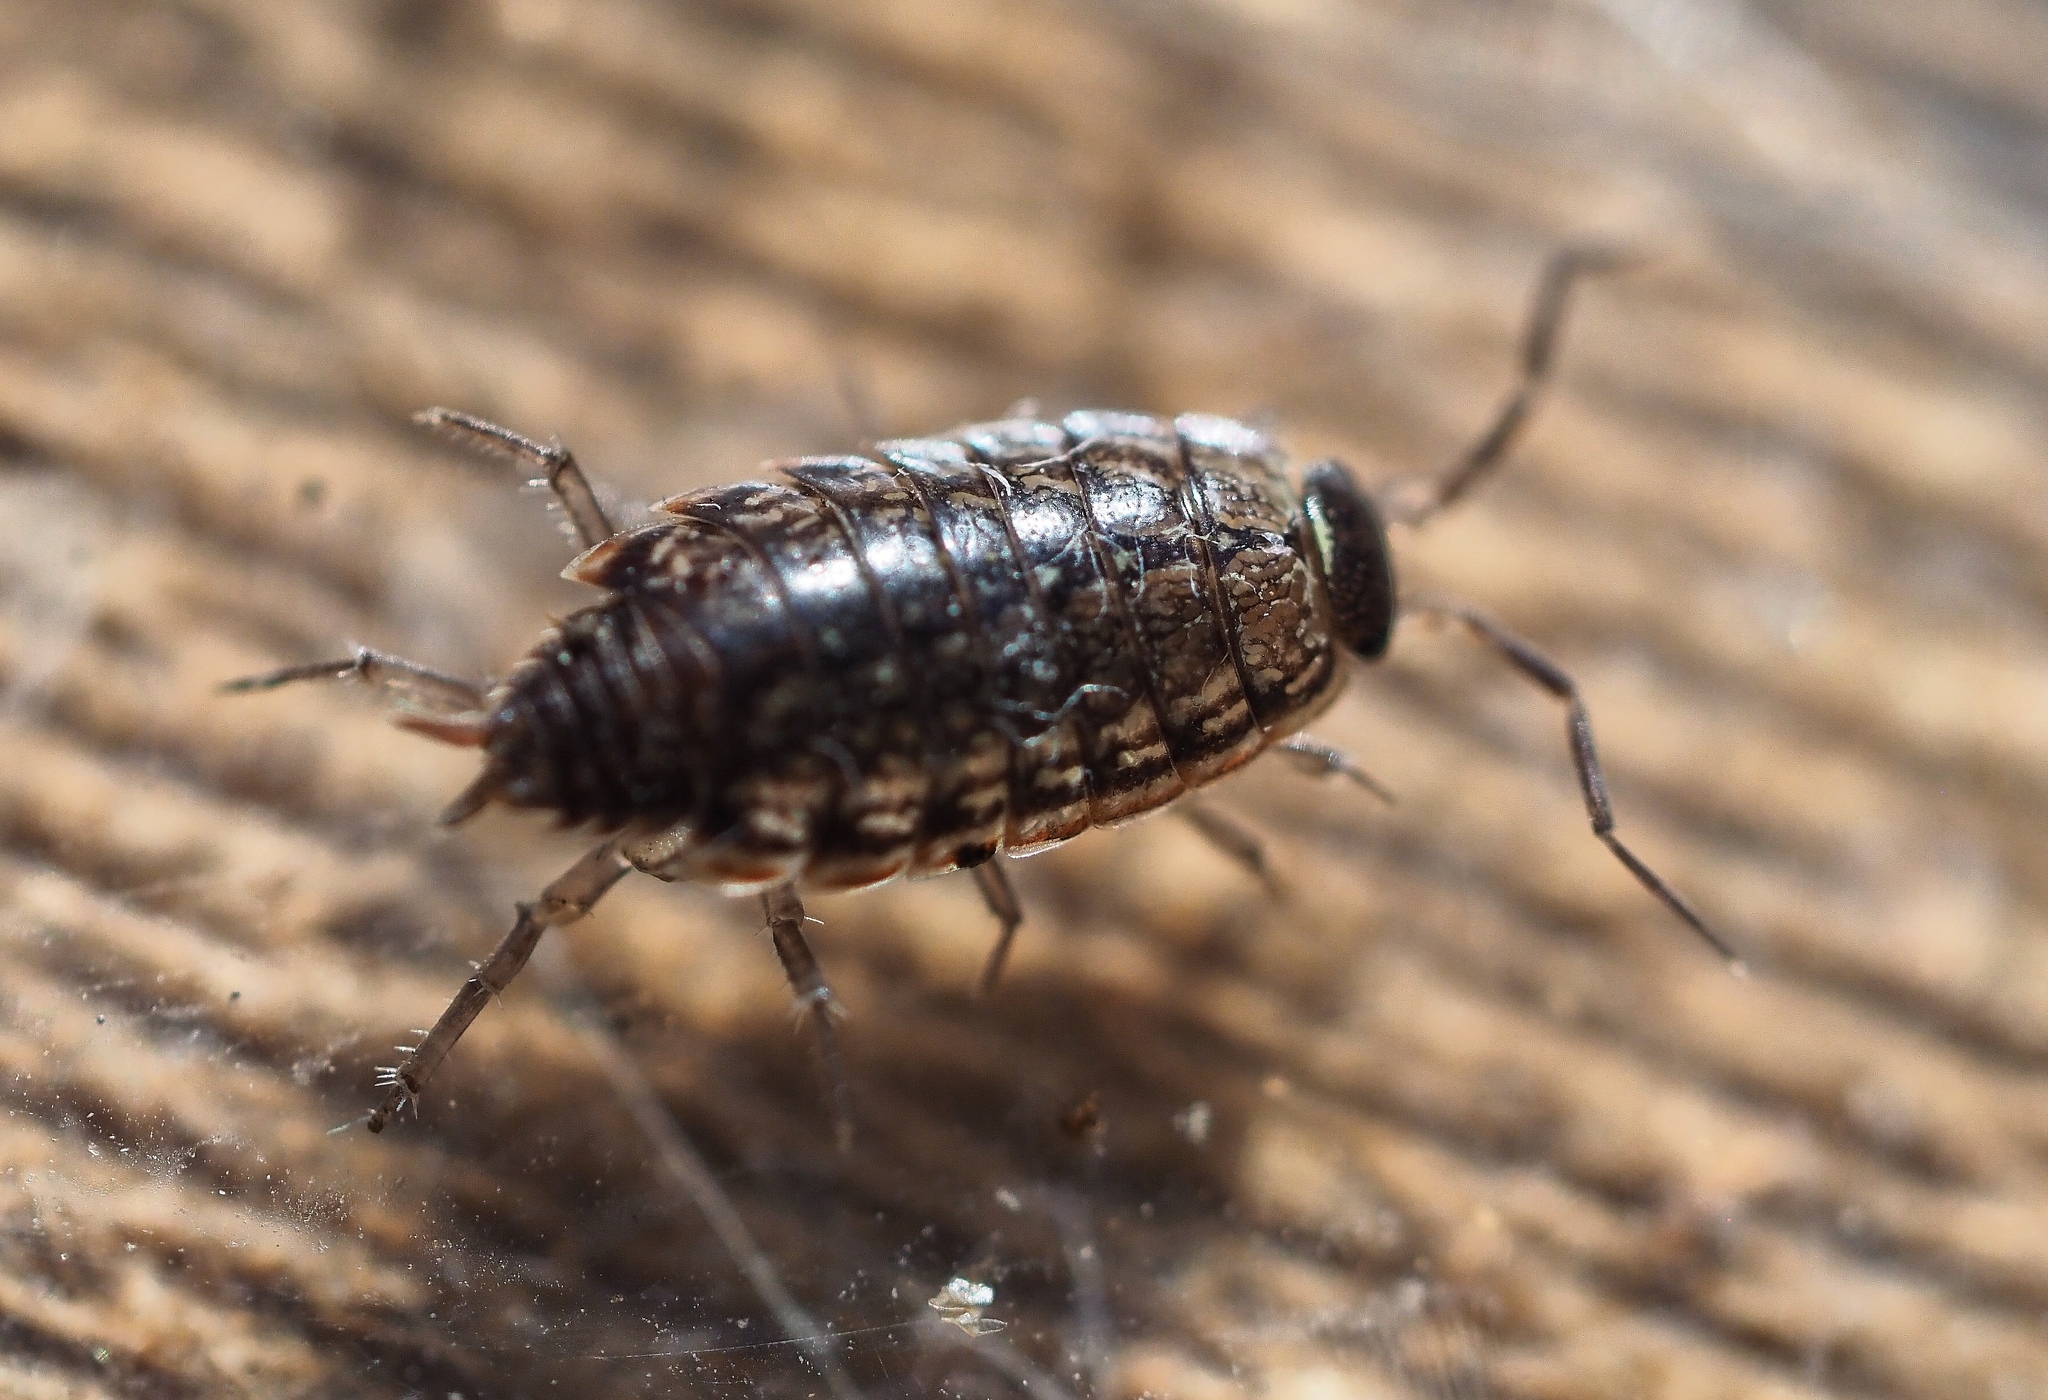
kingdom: Animalia
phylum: Arthropoda
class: Malacostraca
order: Isopoda
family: Philosciidae
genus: Philoscia
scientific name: Philoscia muscorum
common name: Common striped woodlouse
